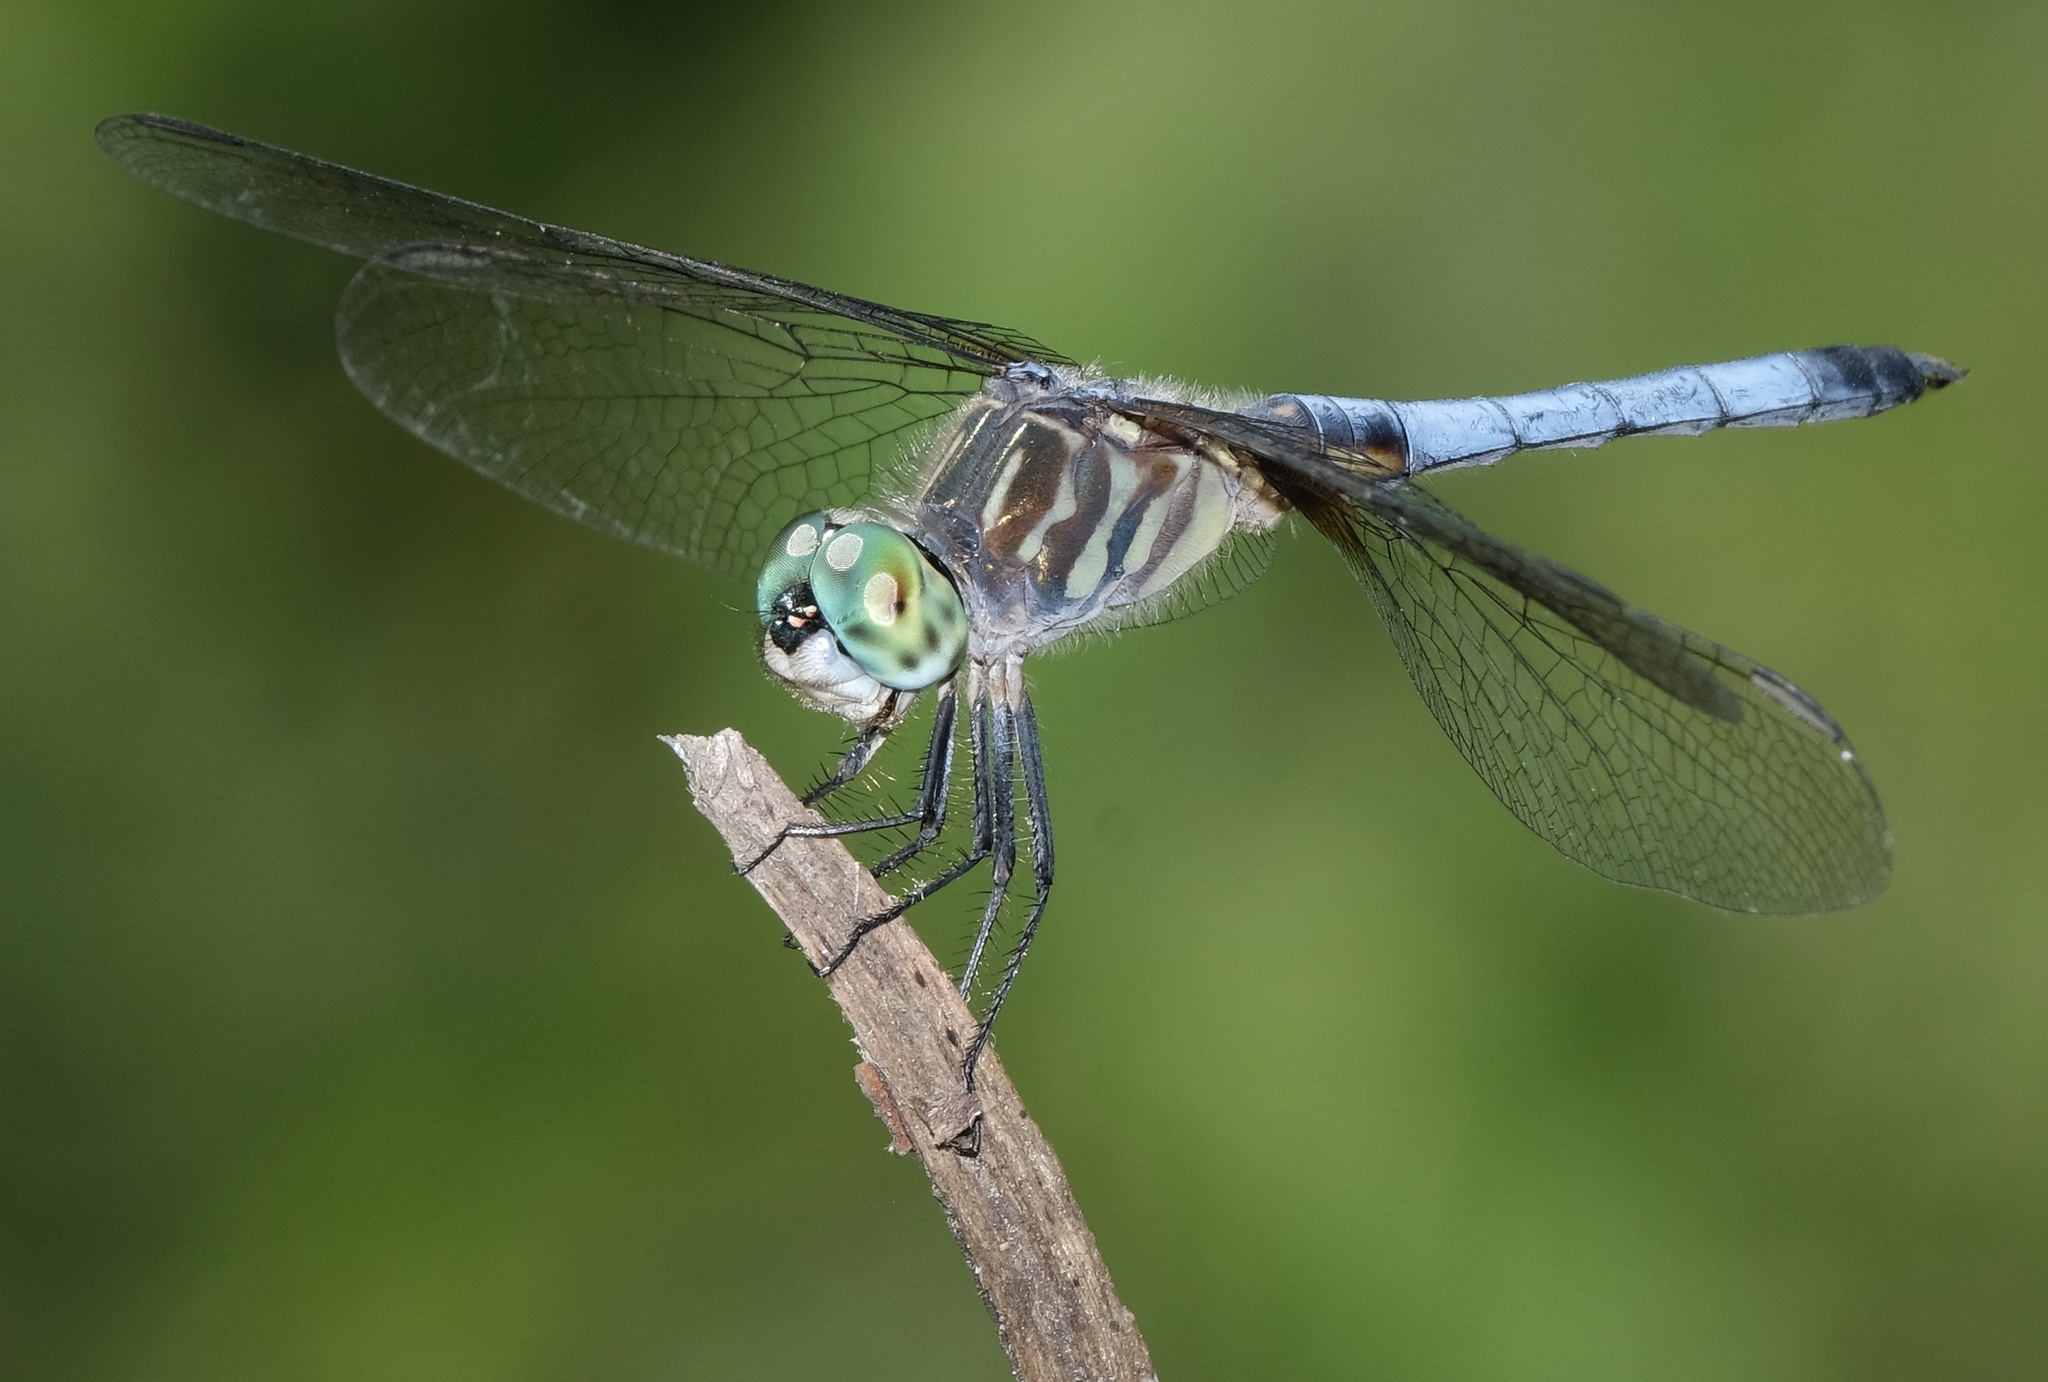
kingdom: Animalia
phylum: Arthropoda
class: Insecta
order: Odonata
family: Libellulidae
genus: Pachydiplax
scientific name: Pachydiplax longipennis
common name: Blue dasher
